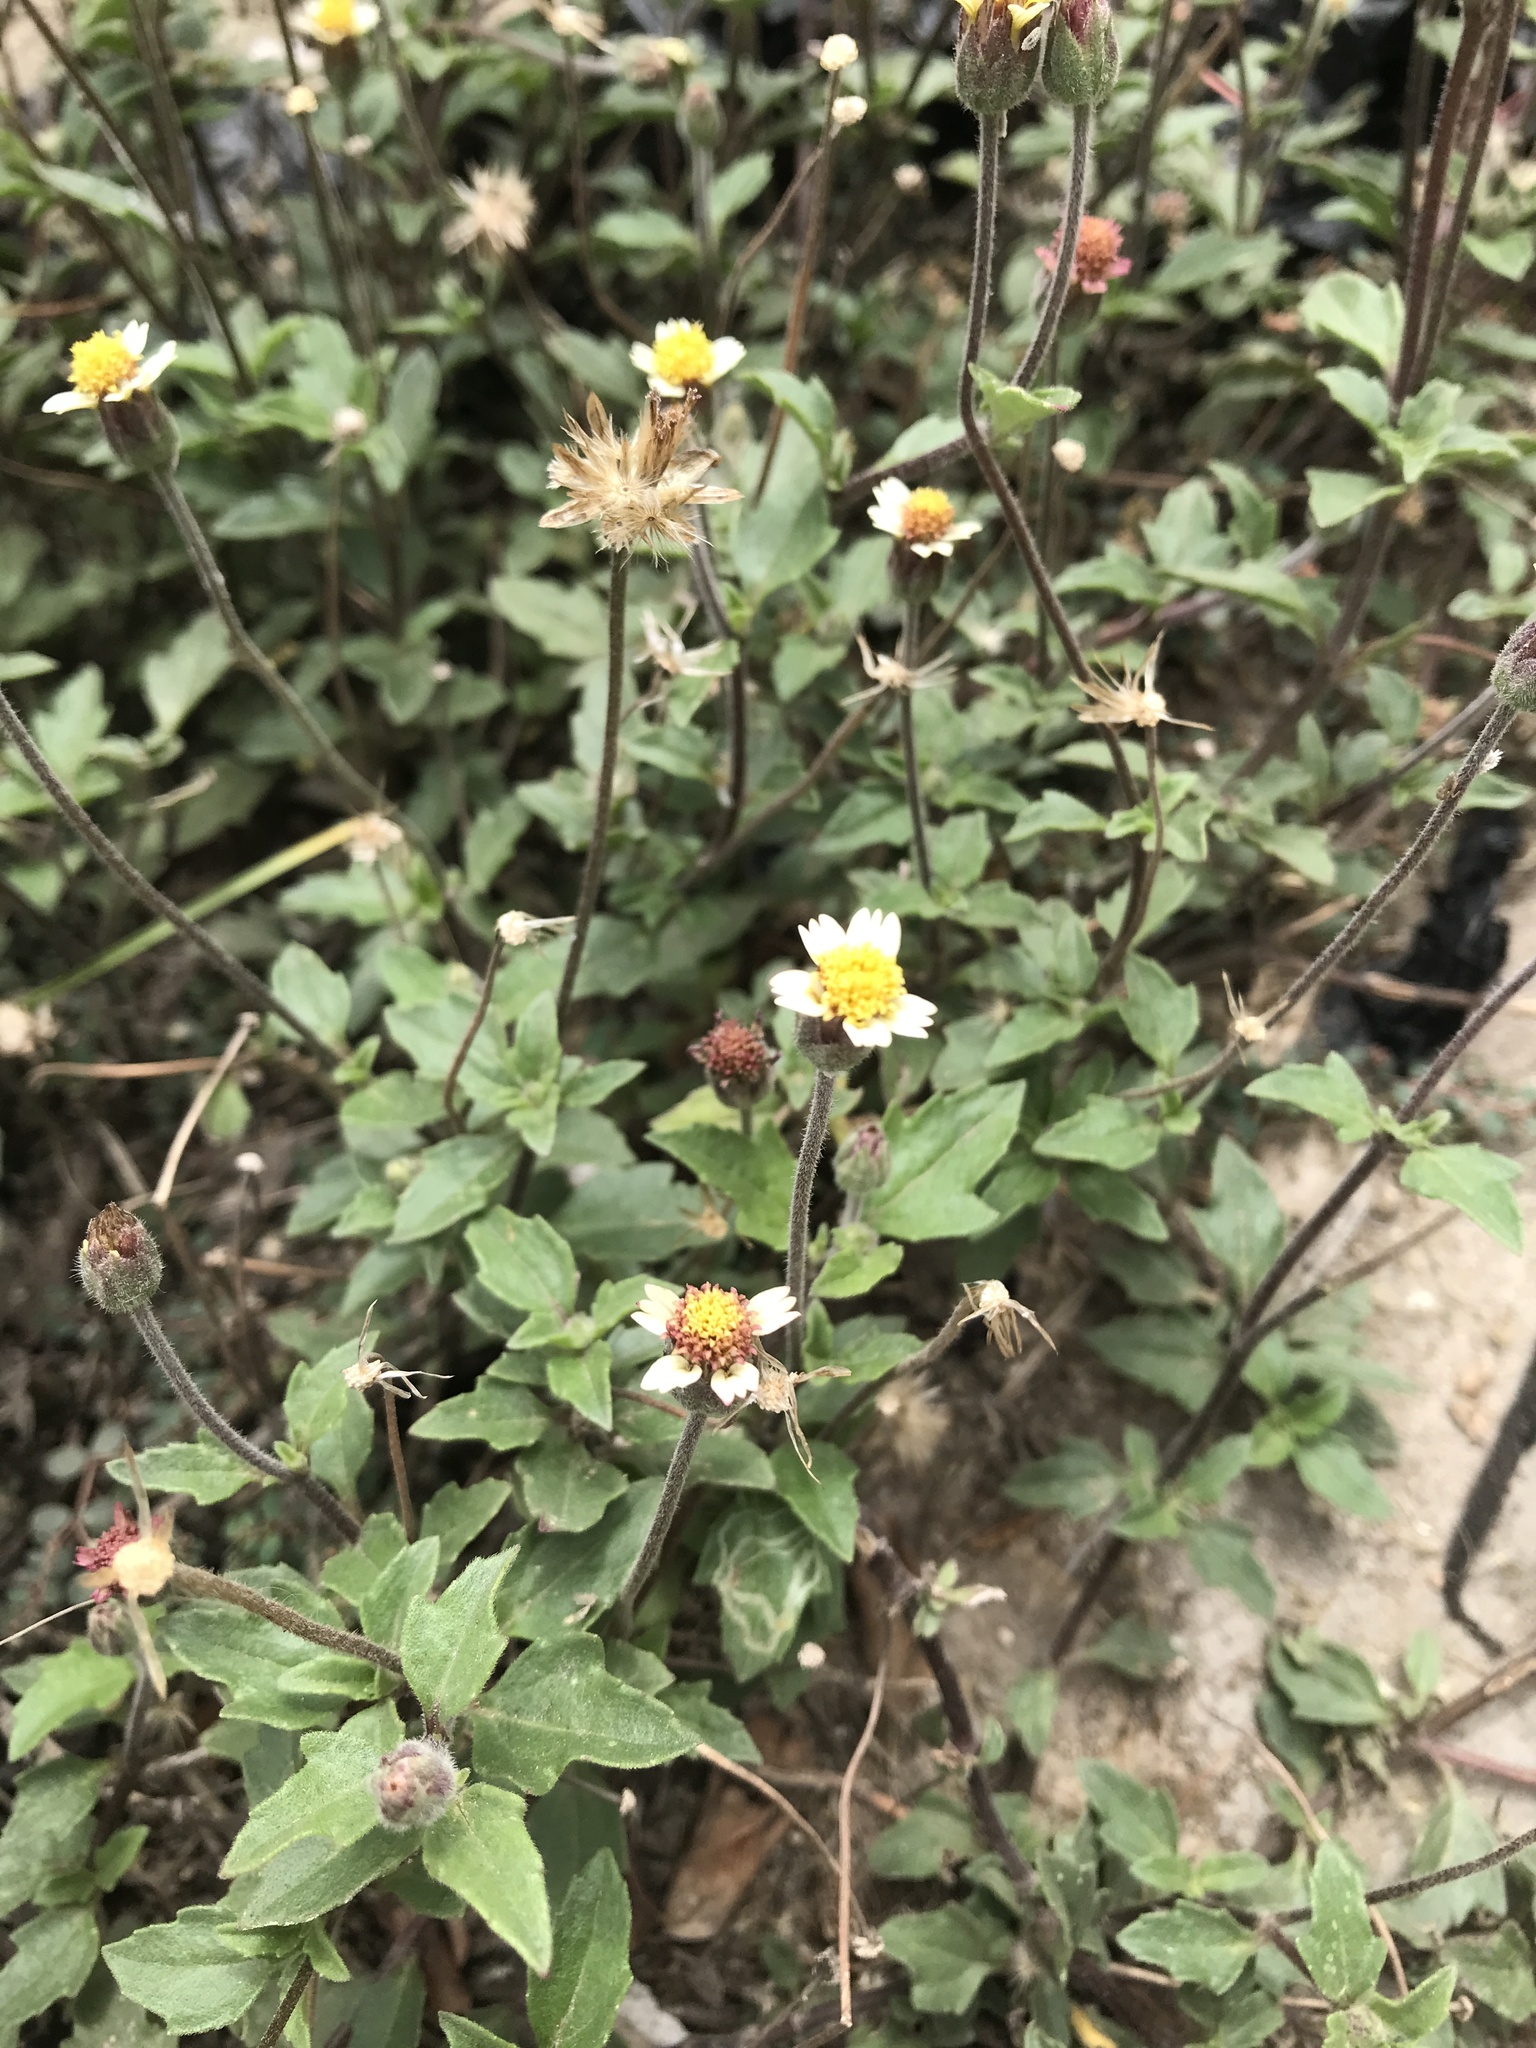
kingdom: Plantae
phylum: Tracheophyta
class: Magnoliopsida
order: Asterales
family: Asteraceae
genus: Tridax
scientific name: Tridax procumbens
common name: Coatbuttons
